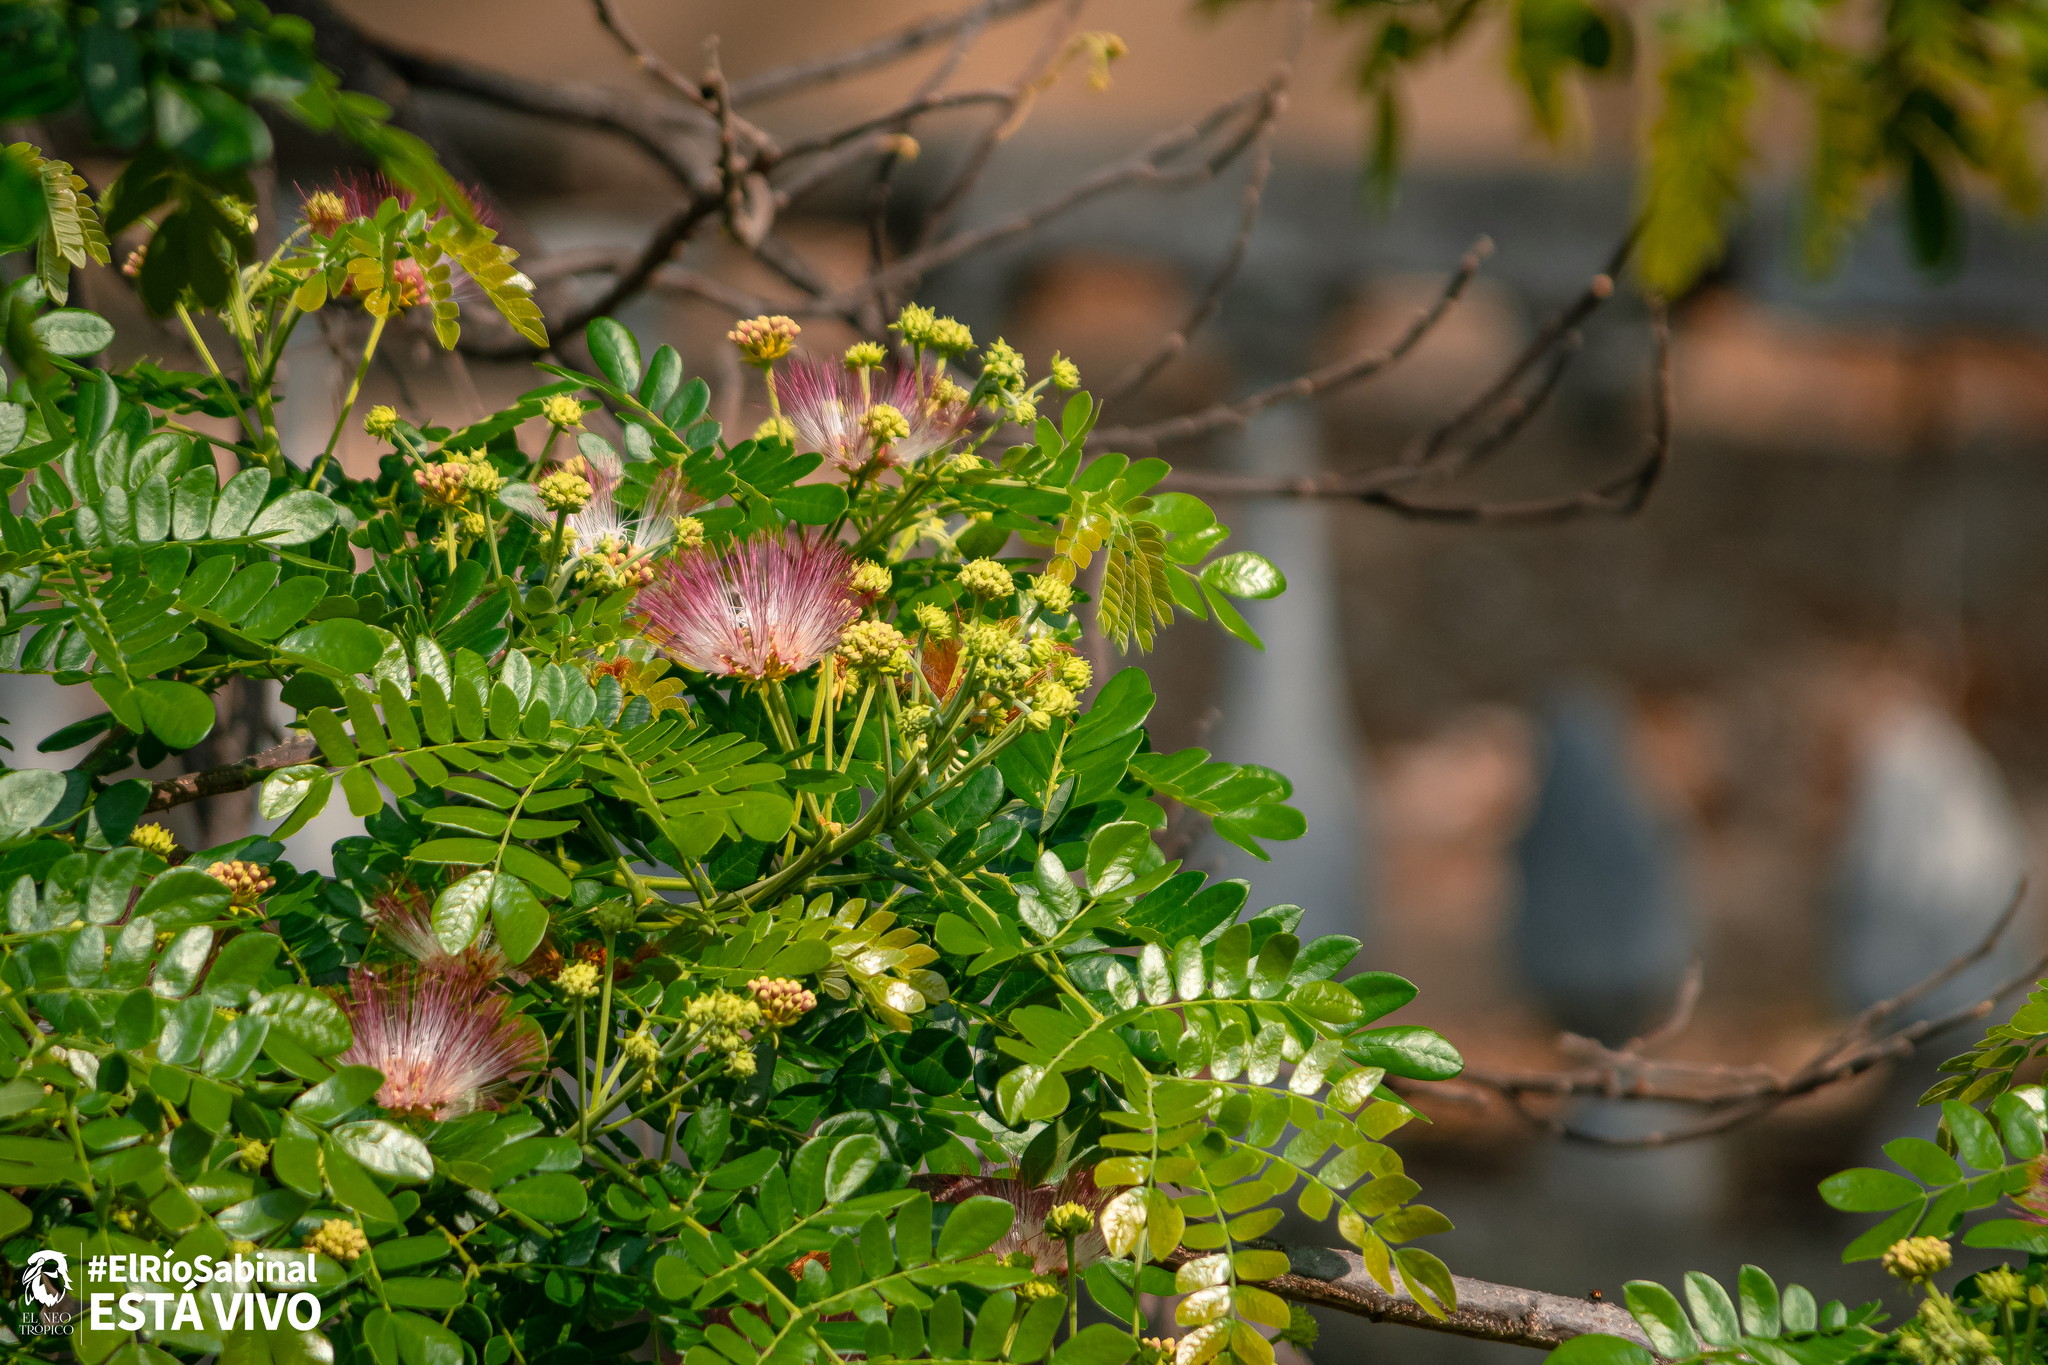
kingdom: Plantae
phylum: Tracheophyta
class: Magnoliopsida
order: Fabales
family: Fabaceae
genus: Samanea
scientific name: Samanea saman
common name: Raintree
